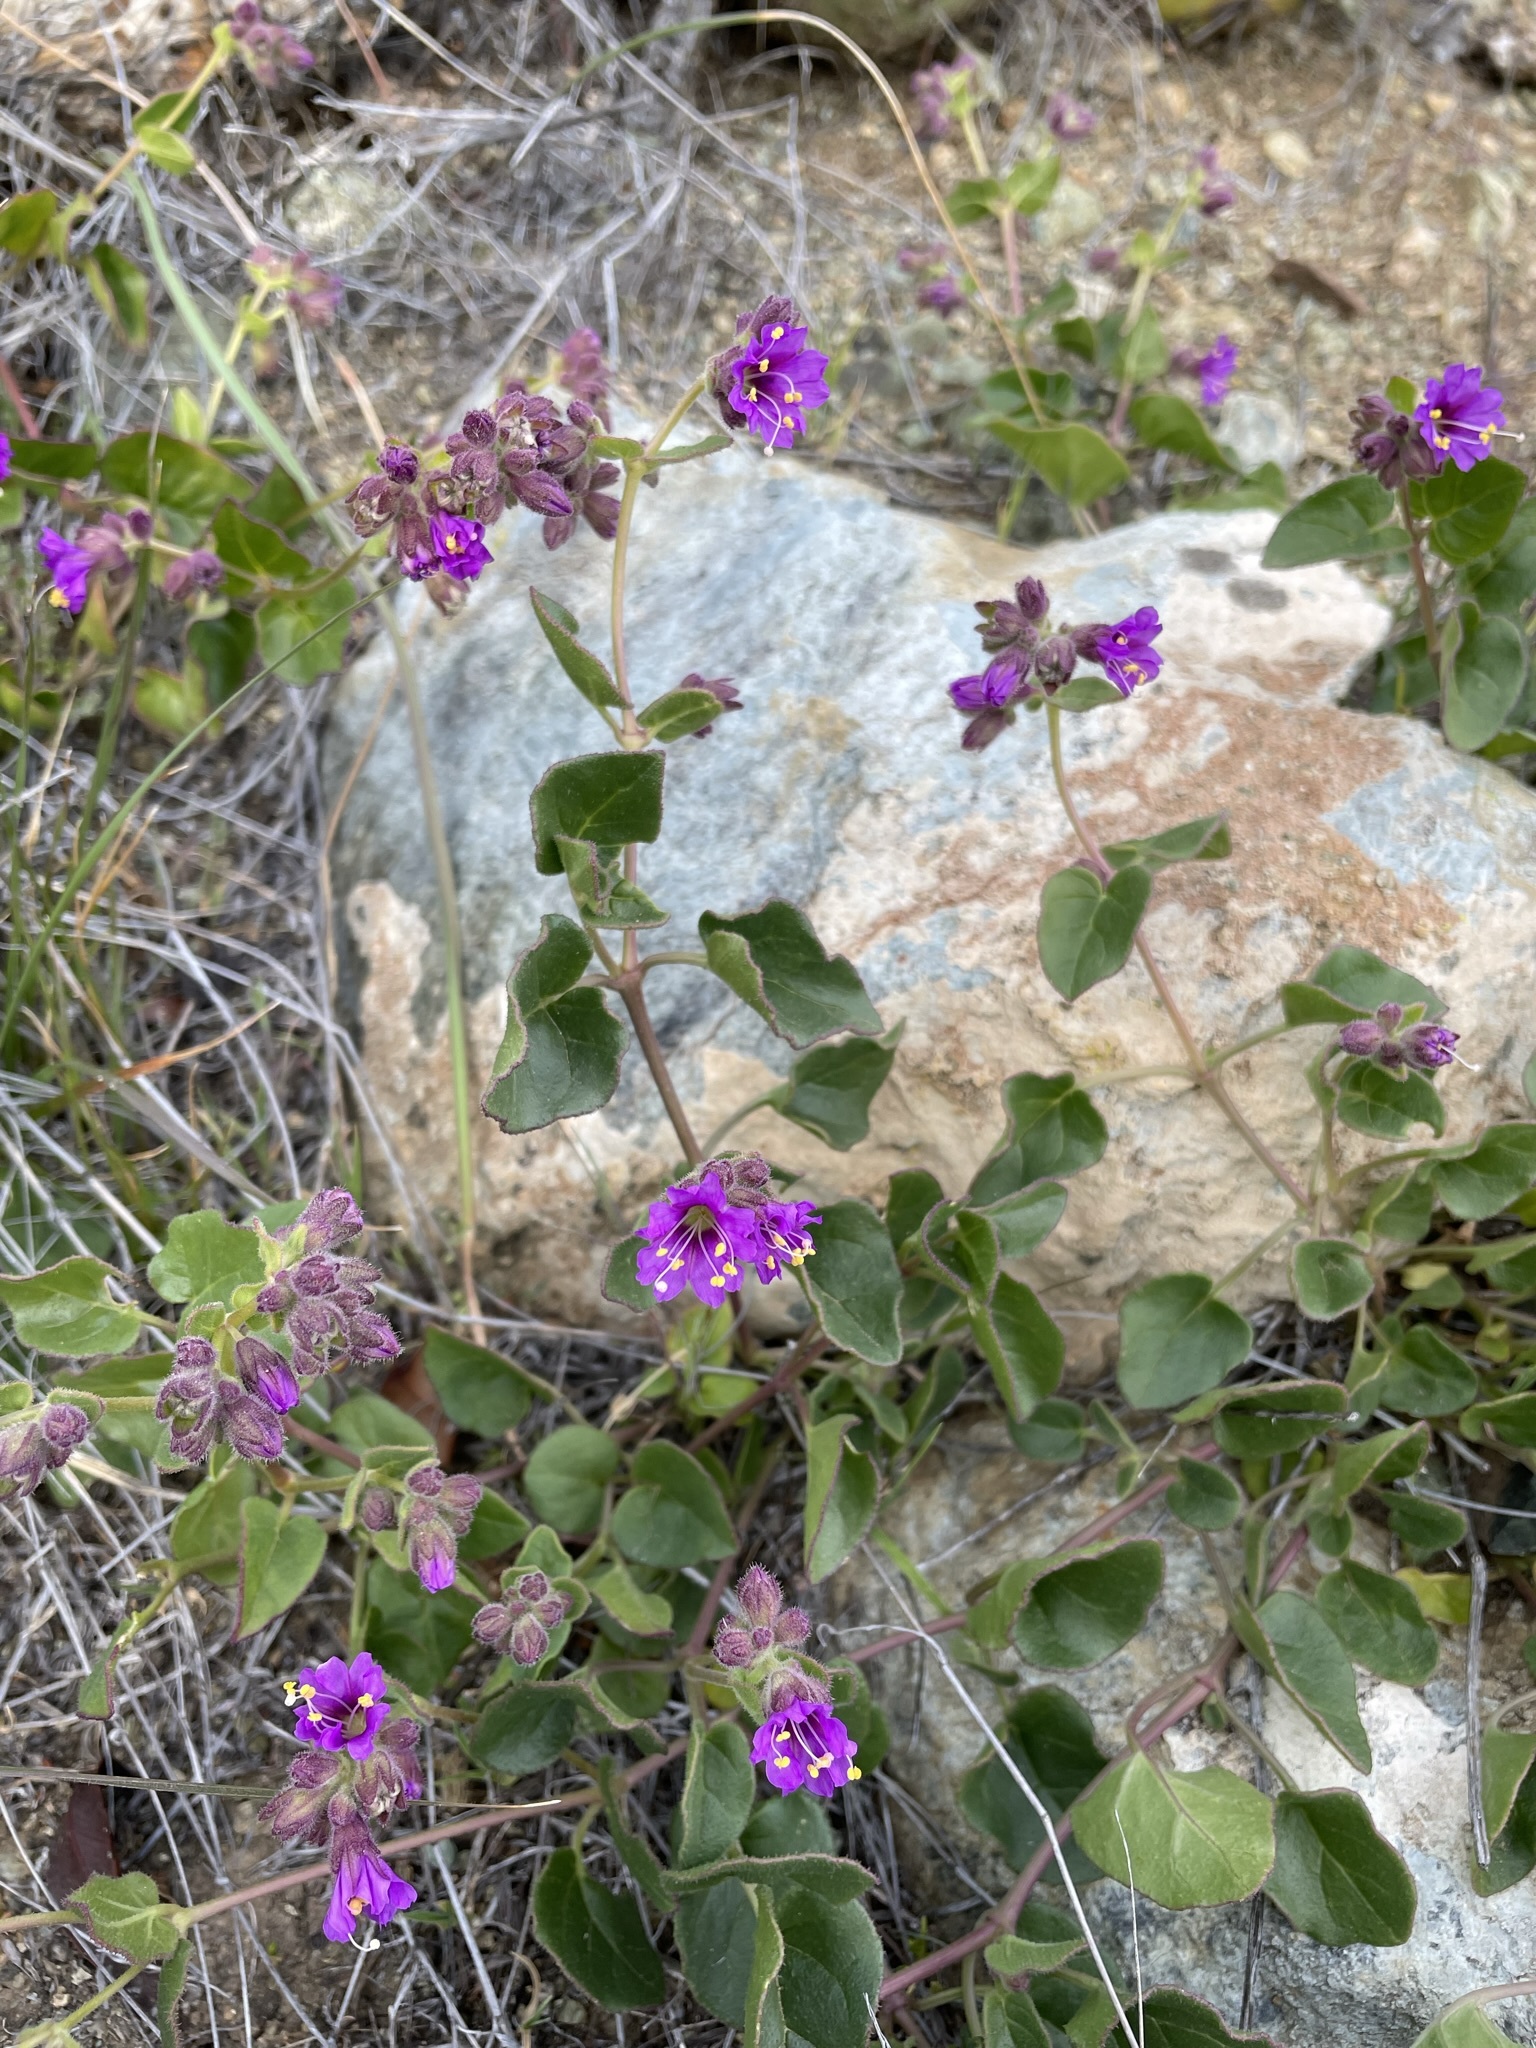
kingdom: Plantae
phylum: Tracheophyta
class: Magnoliopsida
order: Caryophyllales
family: Nyctaginaceae
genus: Mirabilis
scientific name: Mirabilis laevis
